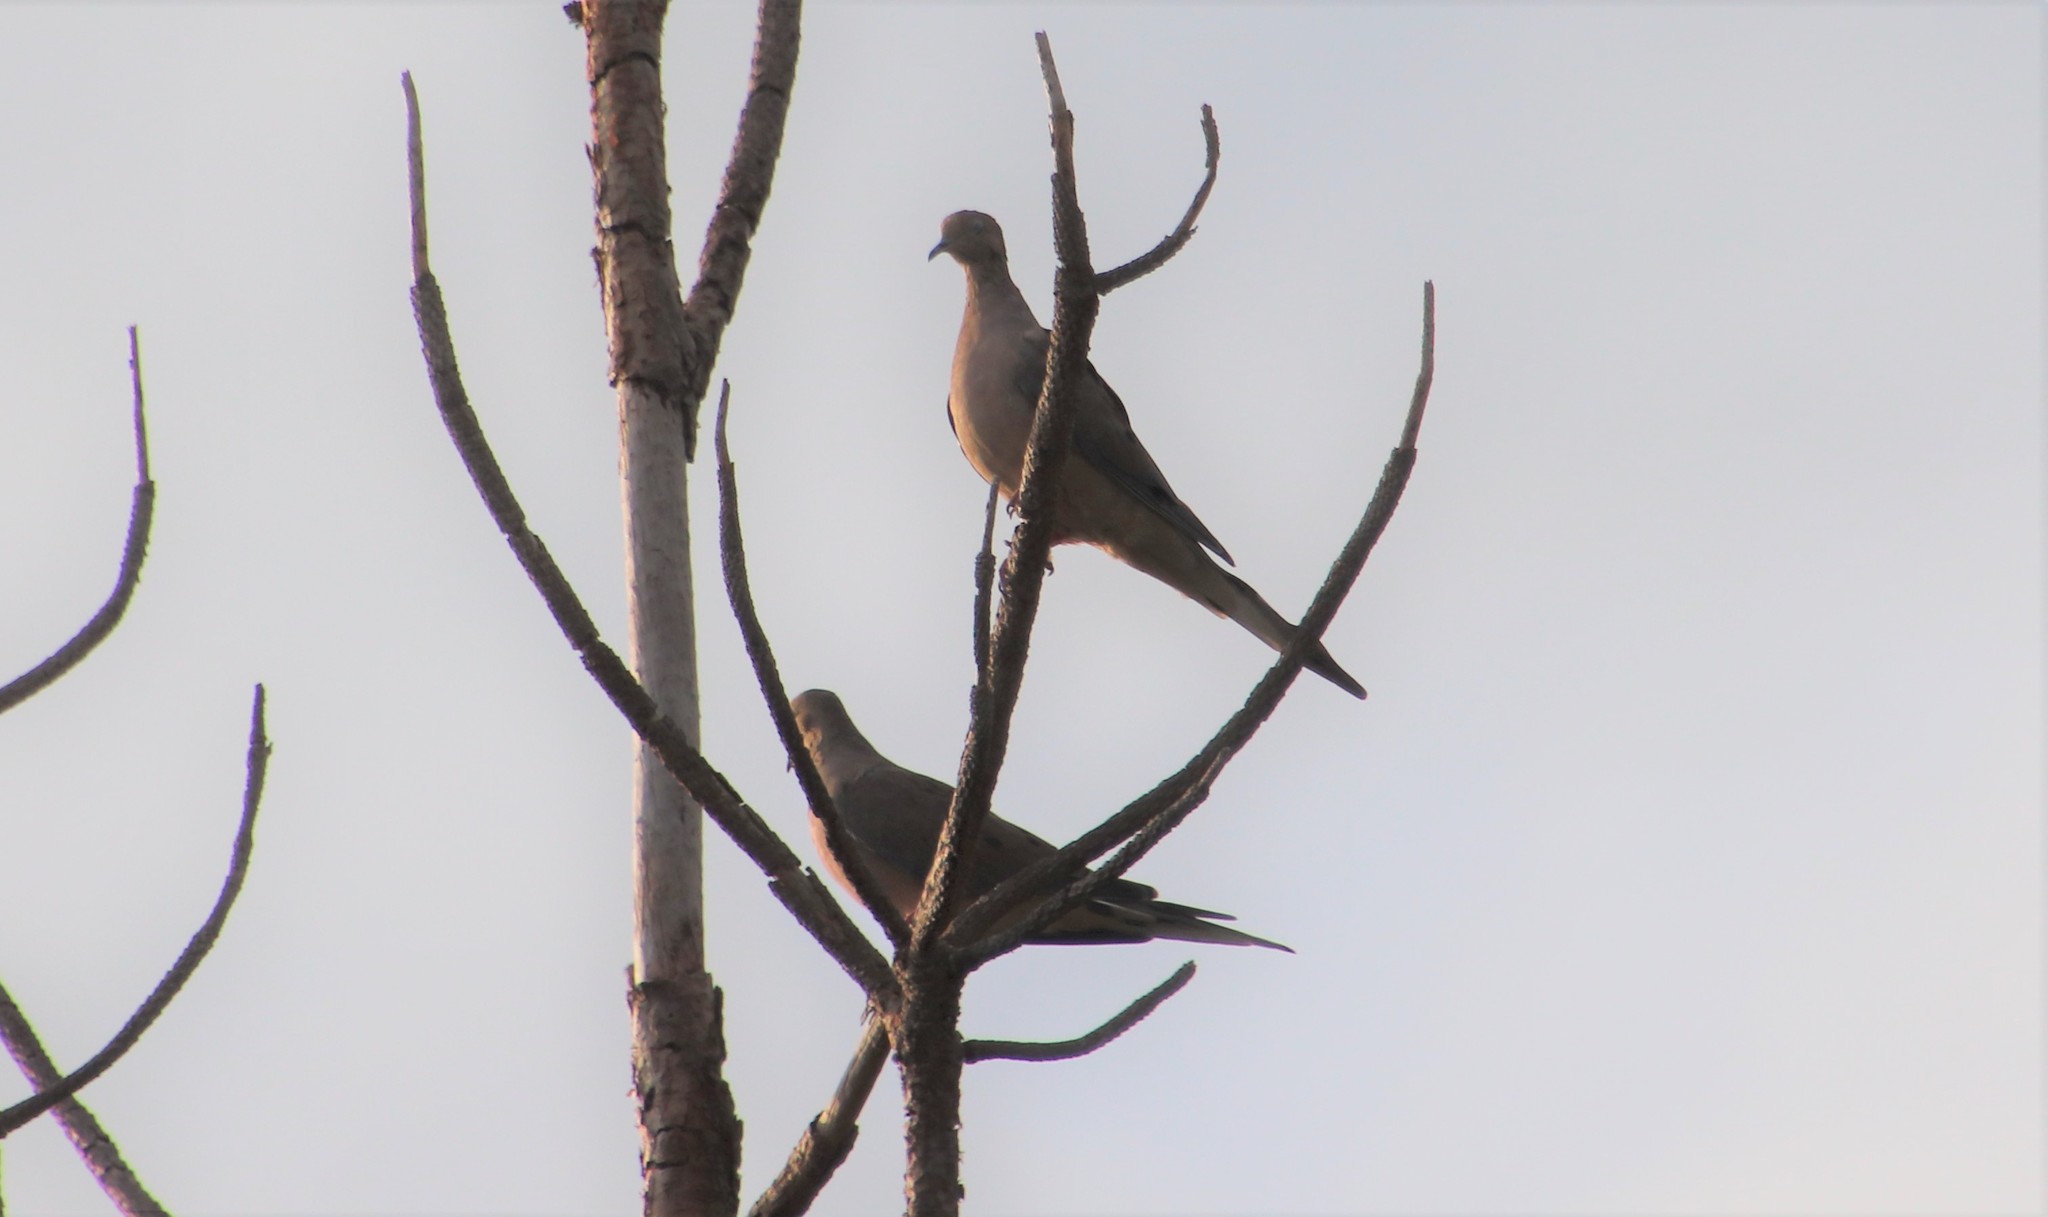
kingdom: Animalia
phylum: Chordata
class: Aves
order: Columbiformes
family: Columbidae
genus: Zenaida
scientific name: Zenaida macroura
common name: Mourning dove
